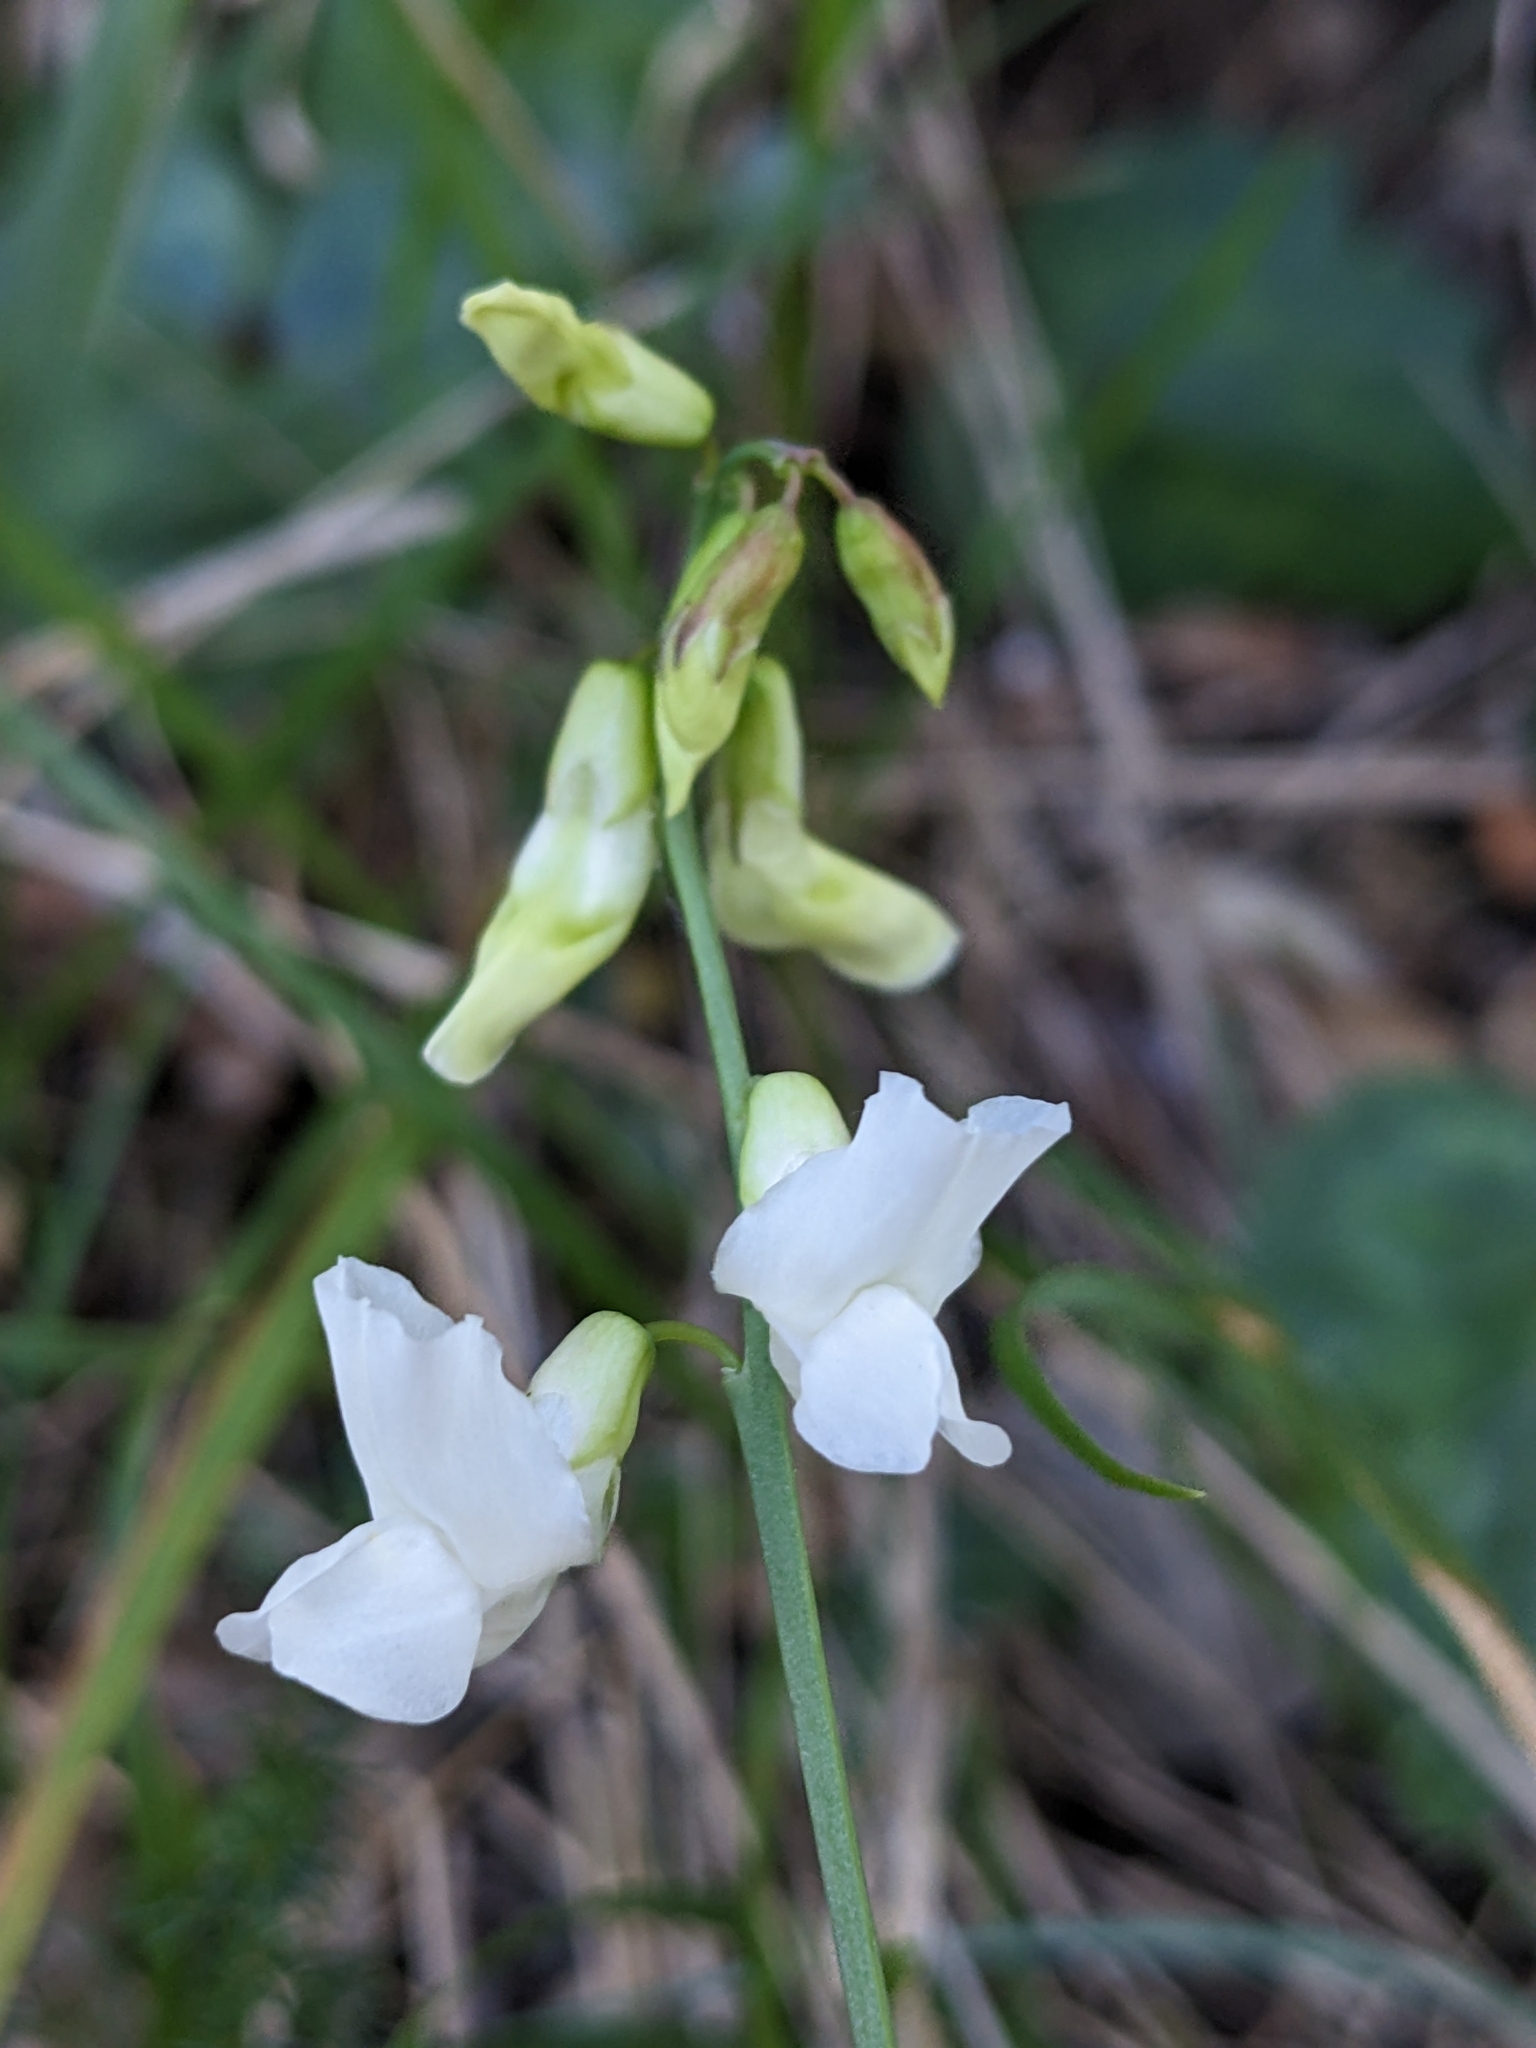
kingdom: Plantae
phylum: Tracheophyta
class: Magnoliopsida
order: Fabales
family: Fabaceae
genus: Lathyrus
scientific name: Lathyrus pannonicus
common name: Pea
